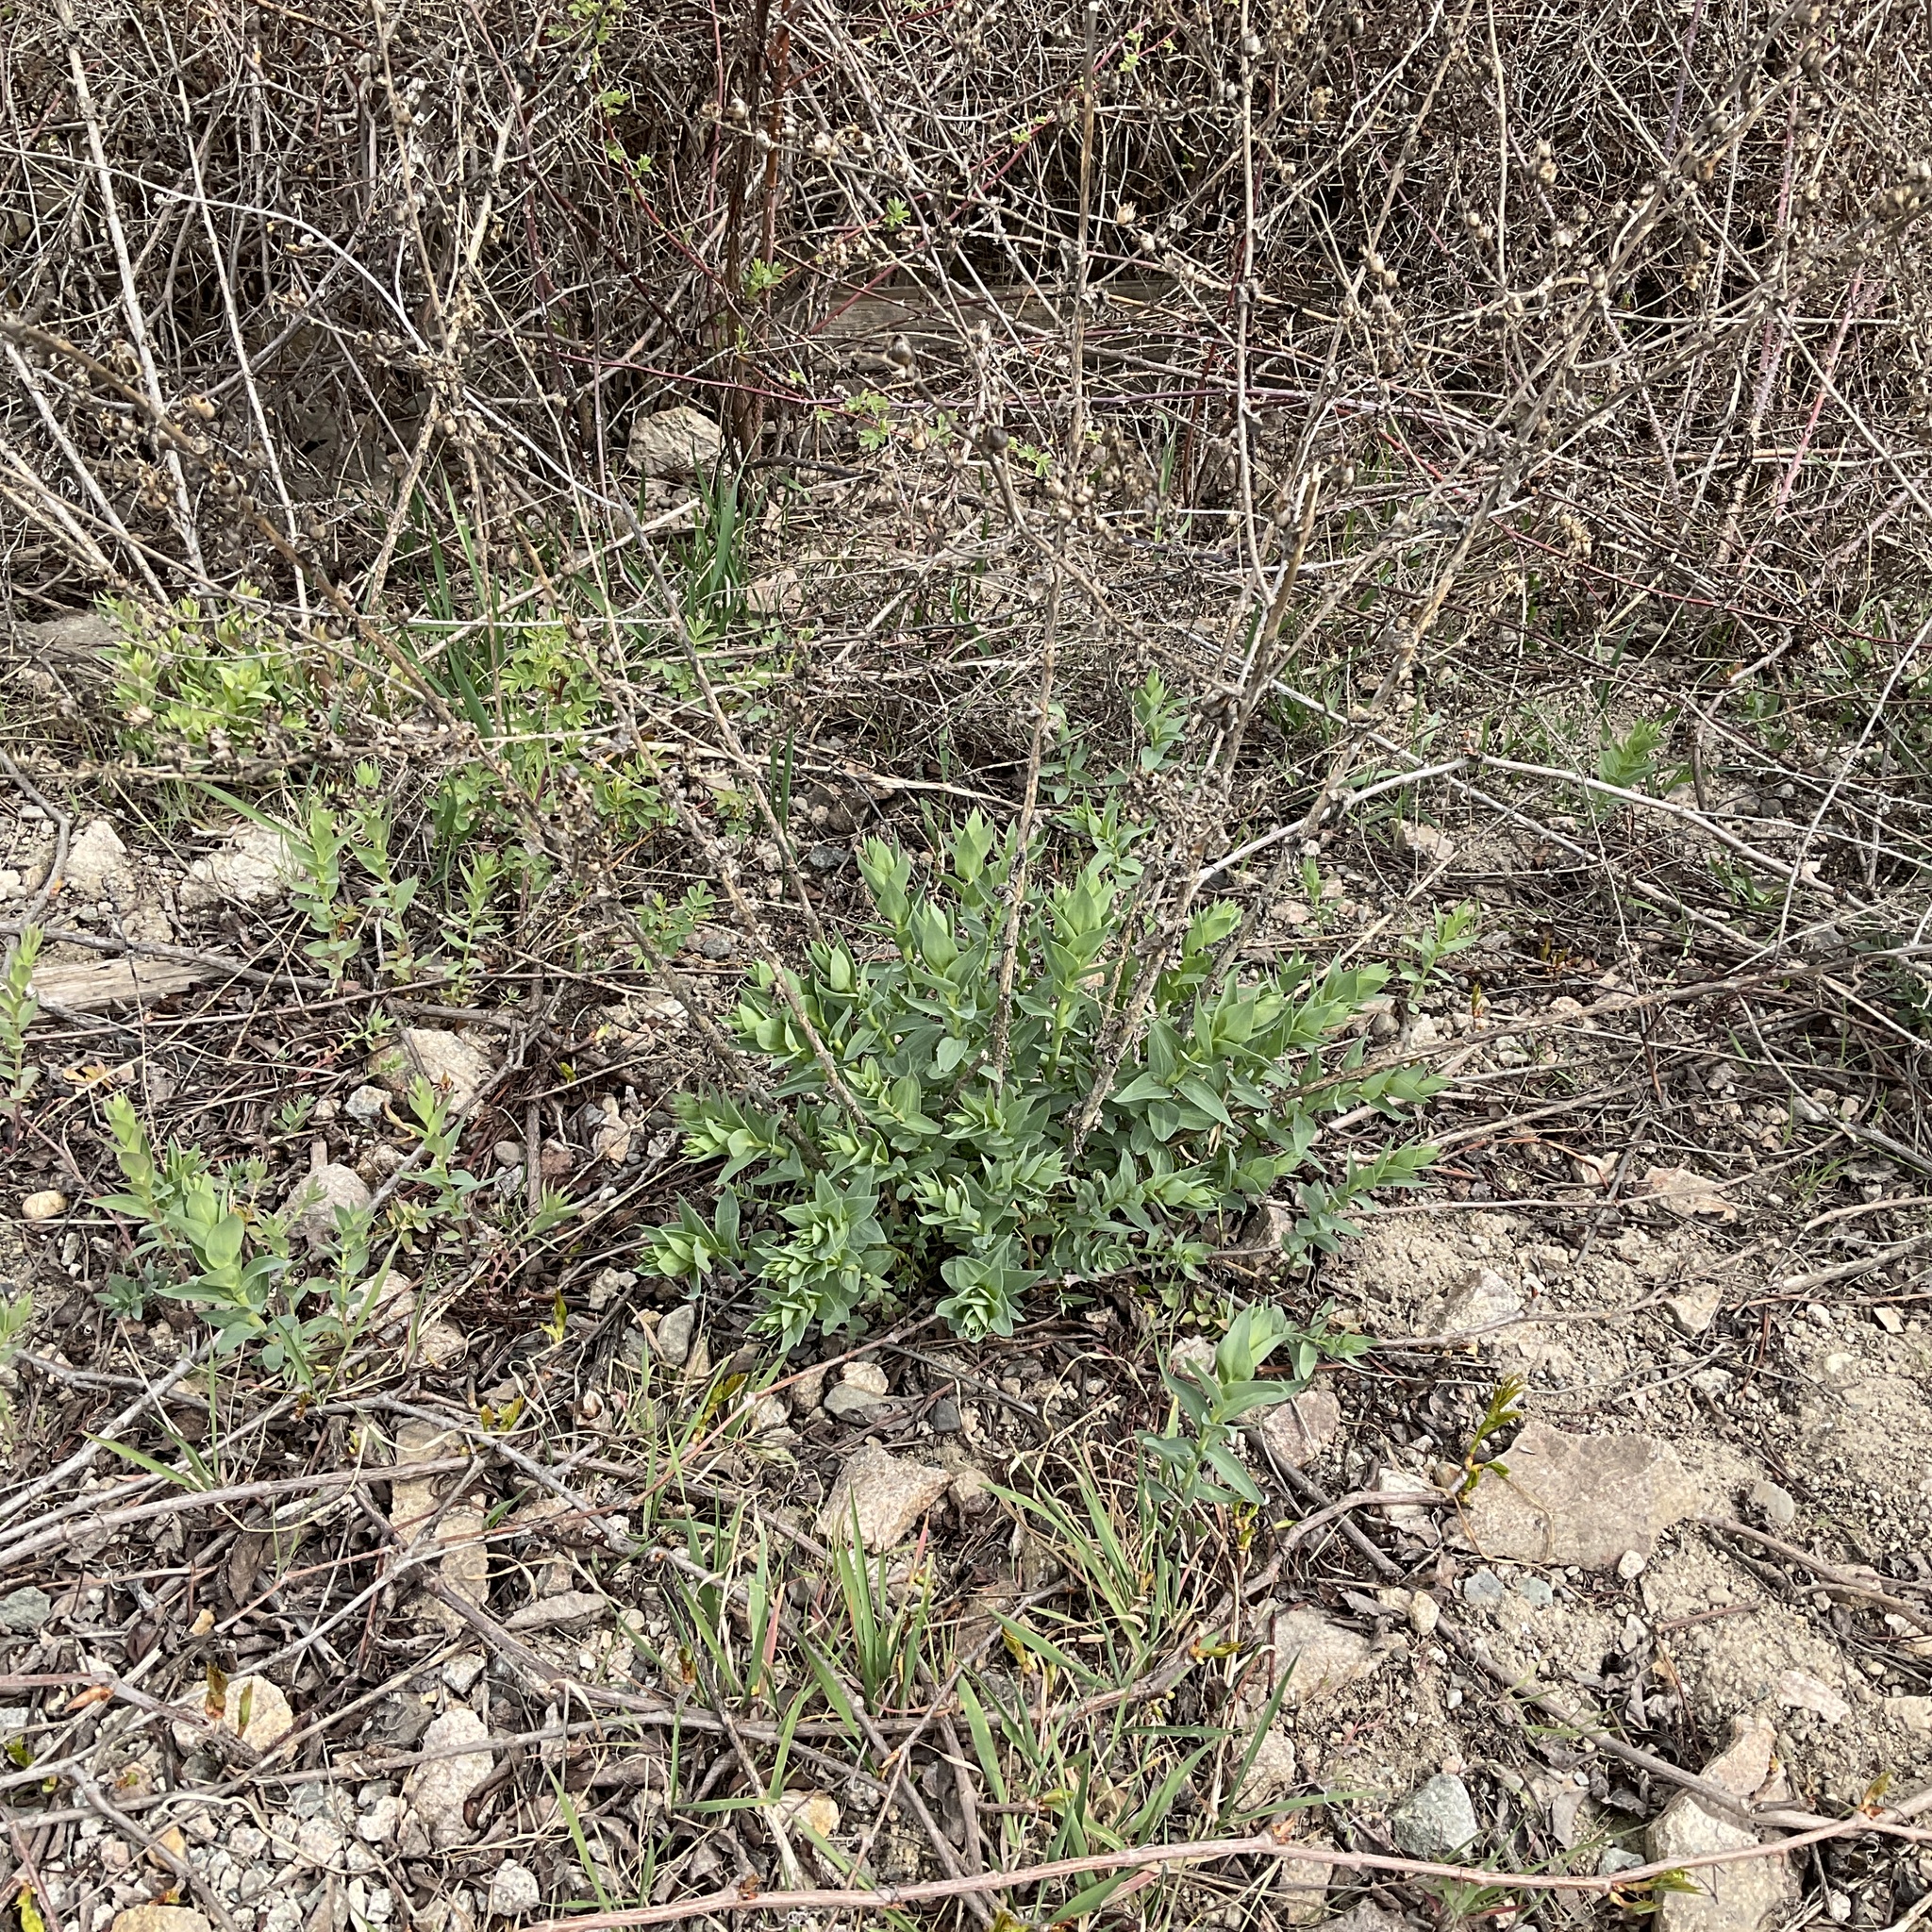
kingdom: Plantae
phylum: Tracheophyta
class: Magnoliopsida
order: Lamiales
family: Plantaginaceae
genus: Linaria
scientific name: Linaria dalmatica
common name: Dalmatian toadflax
